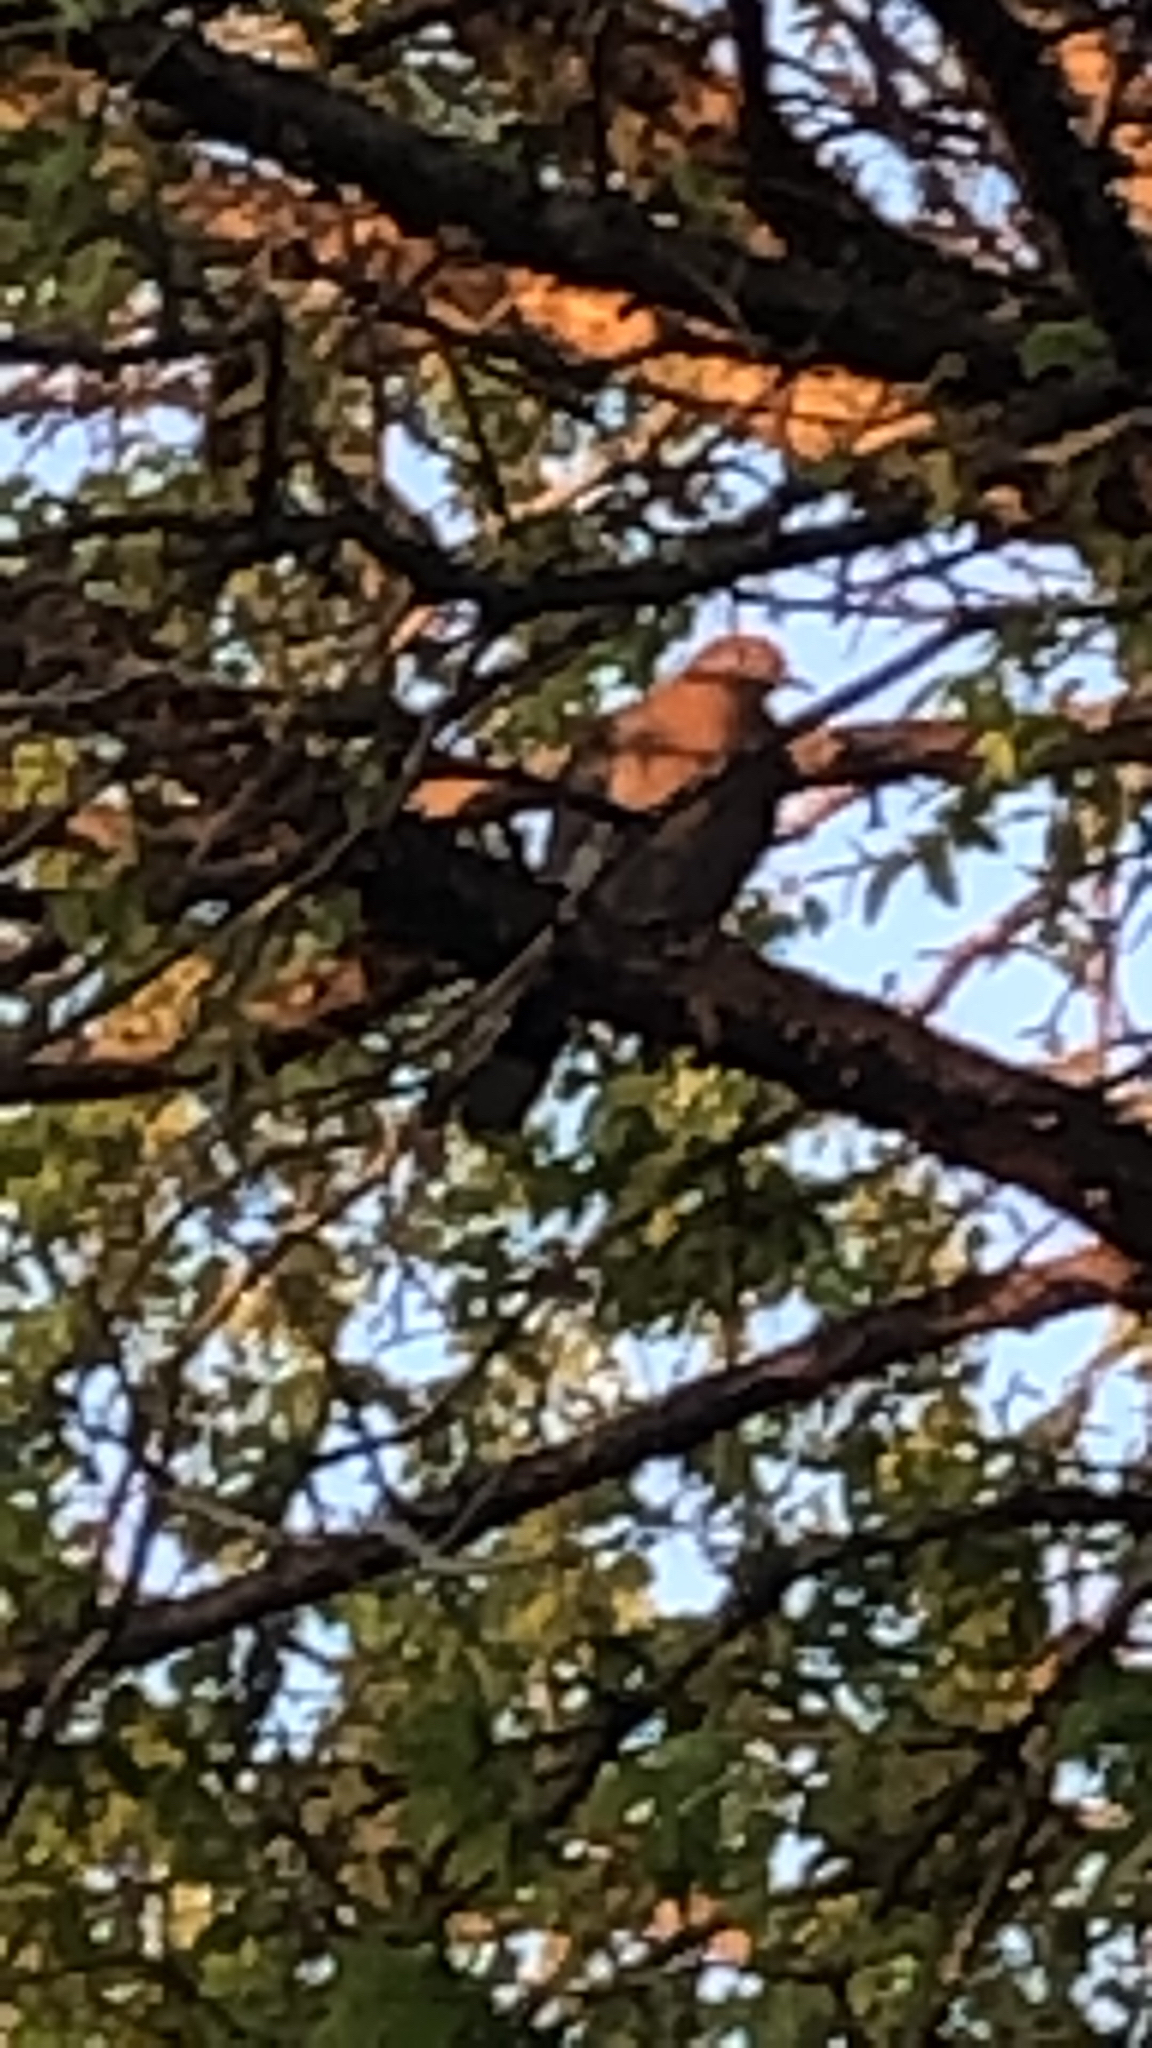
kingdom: Animalia
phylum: Chordata
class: Aves
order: Columbiformes
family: Columbidae
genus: Zenaida
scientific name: Zenaida asiatica
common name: White-winged dove
